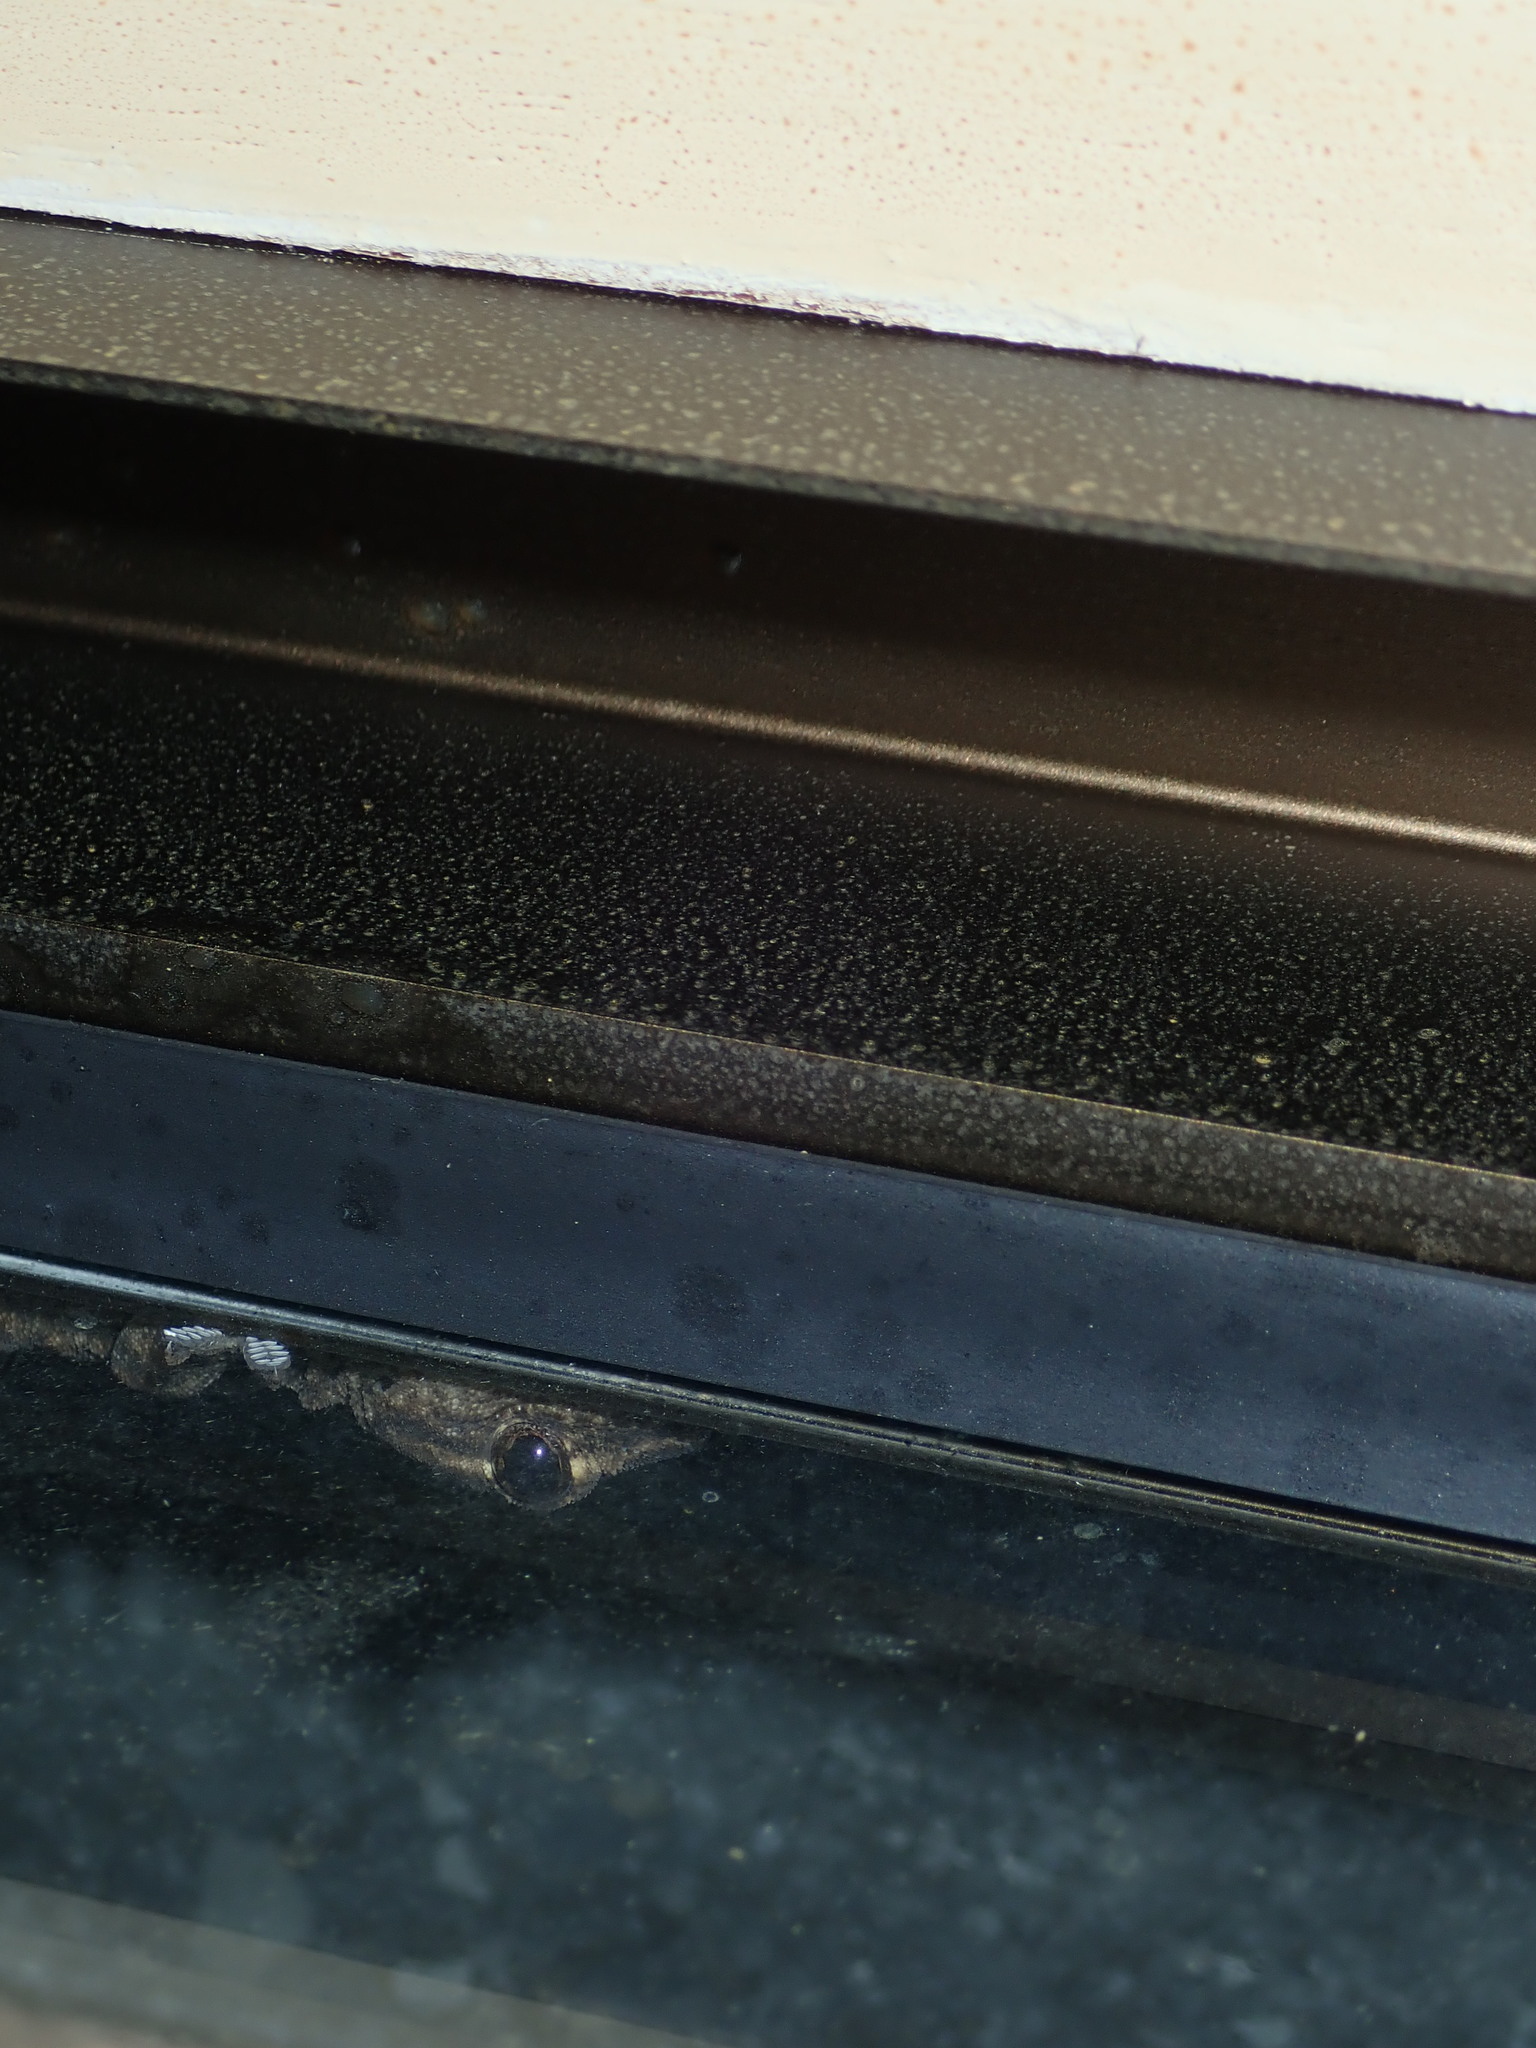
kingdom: Animalia
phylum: Chordata
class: Squamata
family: Gekkonidae
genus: Hemidactylus
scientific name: Hemidactylus frenatus
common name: Common house gecko
